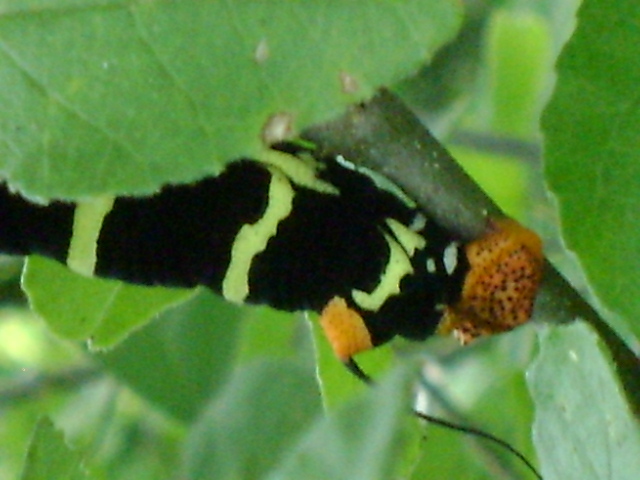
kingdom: Animalia
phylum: Arthropoda
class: Insecta
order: Lepidoptera
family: Sphingidae
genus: Pseudosphinx
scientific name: Pseudosphinx tetrio
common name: Tetrio sphinx
